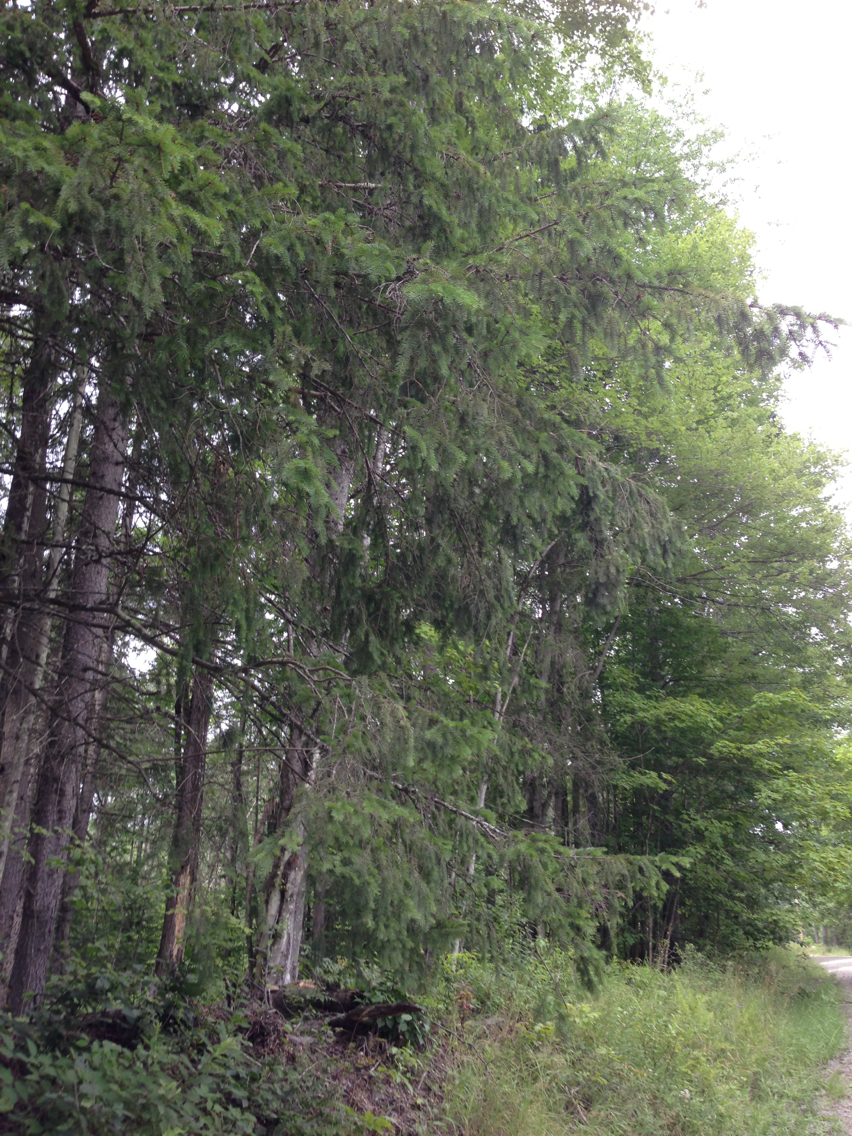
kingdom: Plantae
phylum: Tracheophyta
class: Pinopsida
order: Pinales
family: Pinaceae
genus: Picea
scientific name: Picea abies
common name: Norway spruce
